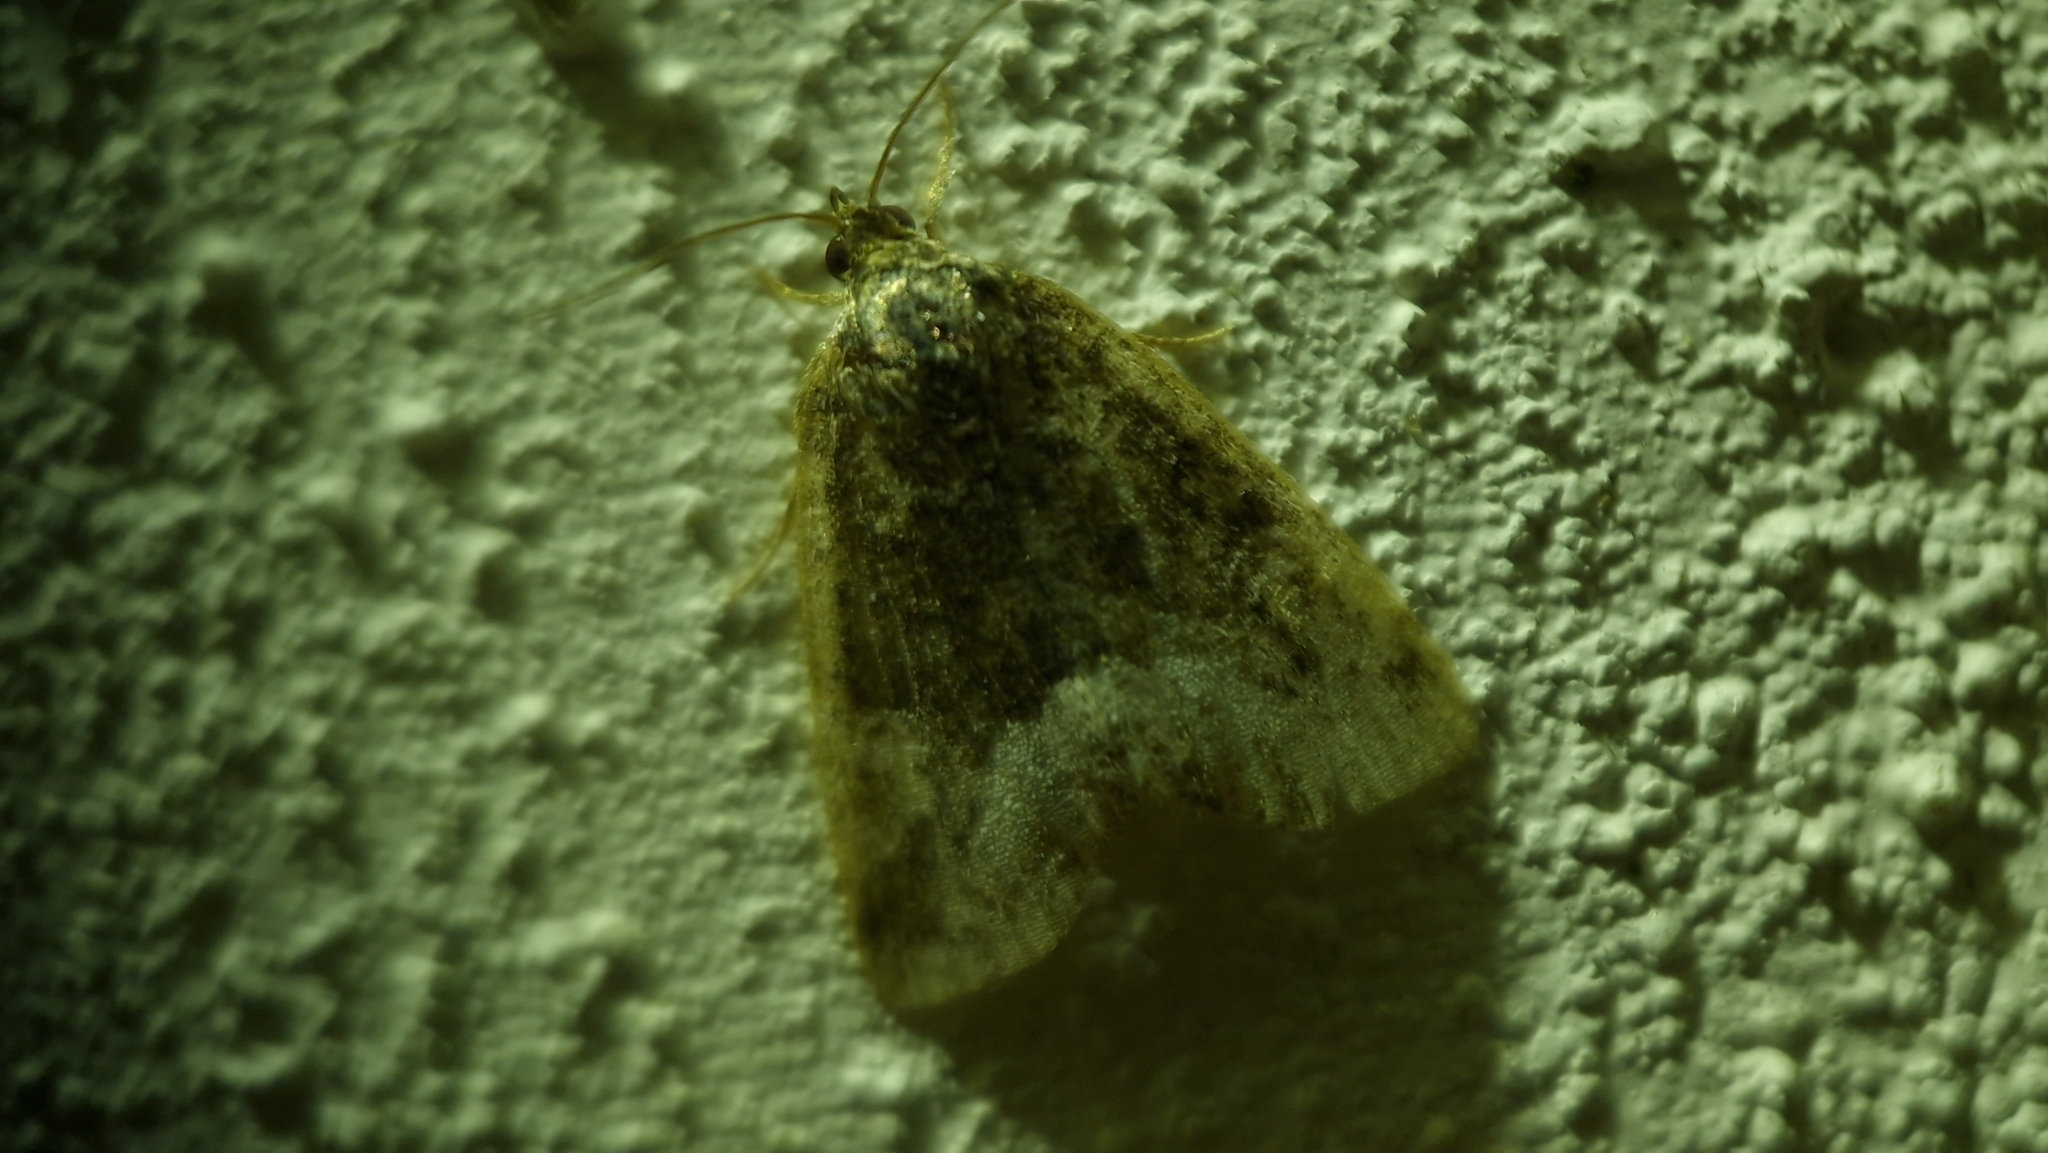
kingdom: Animalia
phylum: Arthropoda
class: Insecta
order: Lepidoptera
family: Noctuidae
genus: Deltote
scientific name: Deltote pygarga
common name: Marbled white spot
